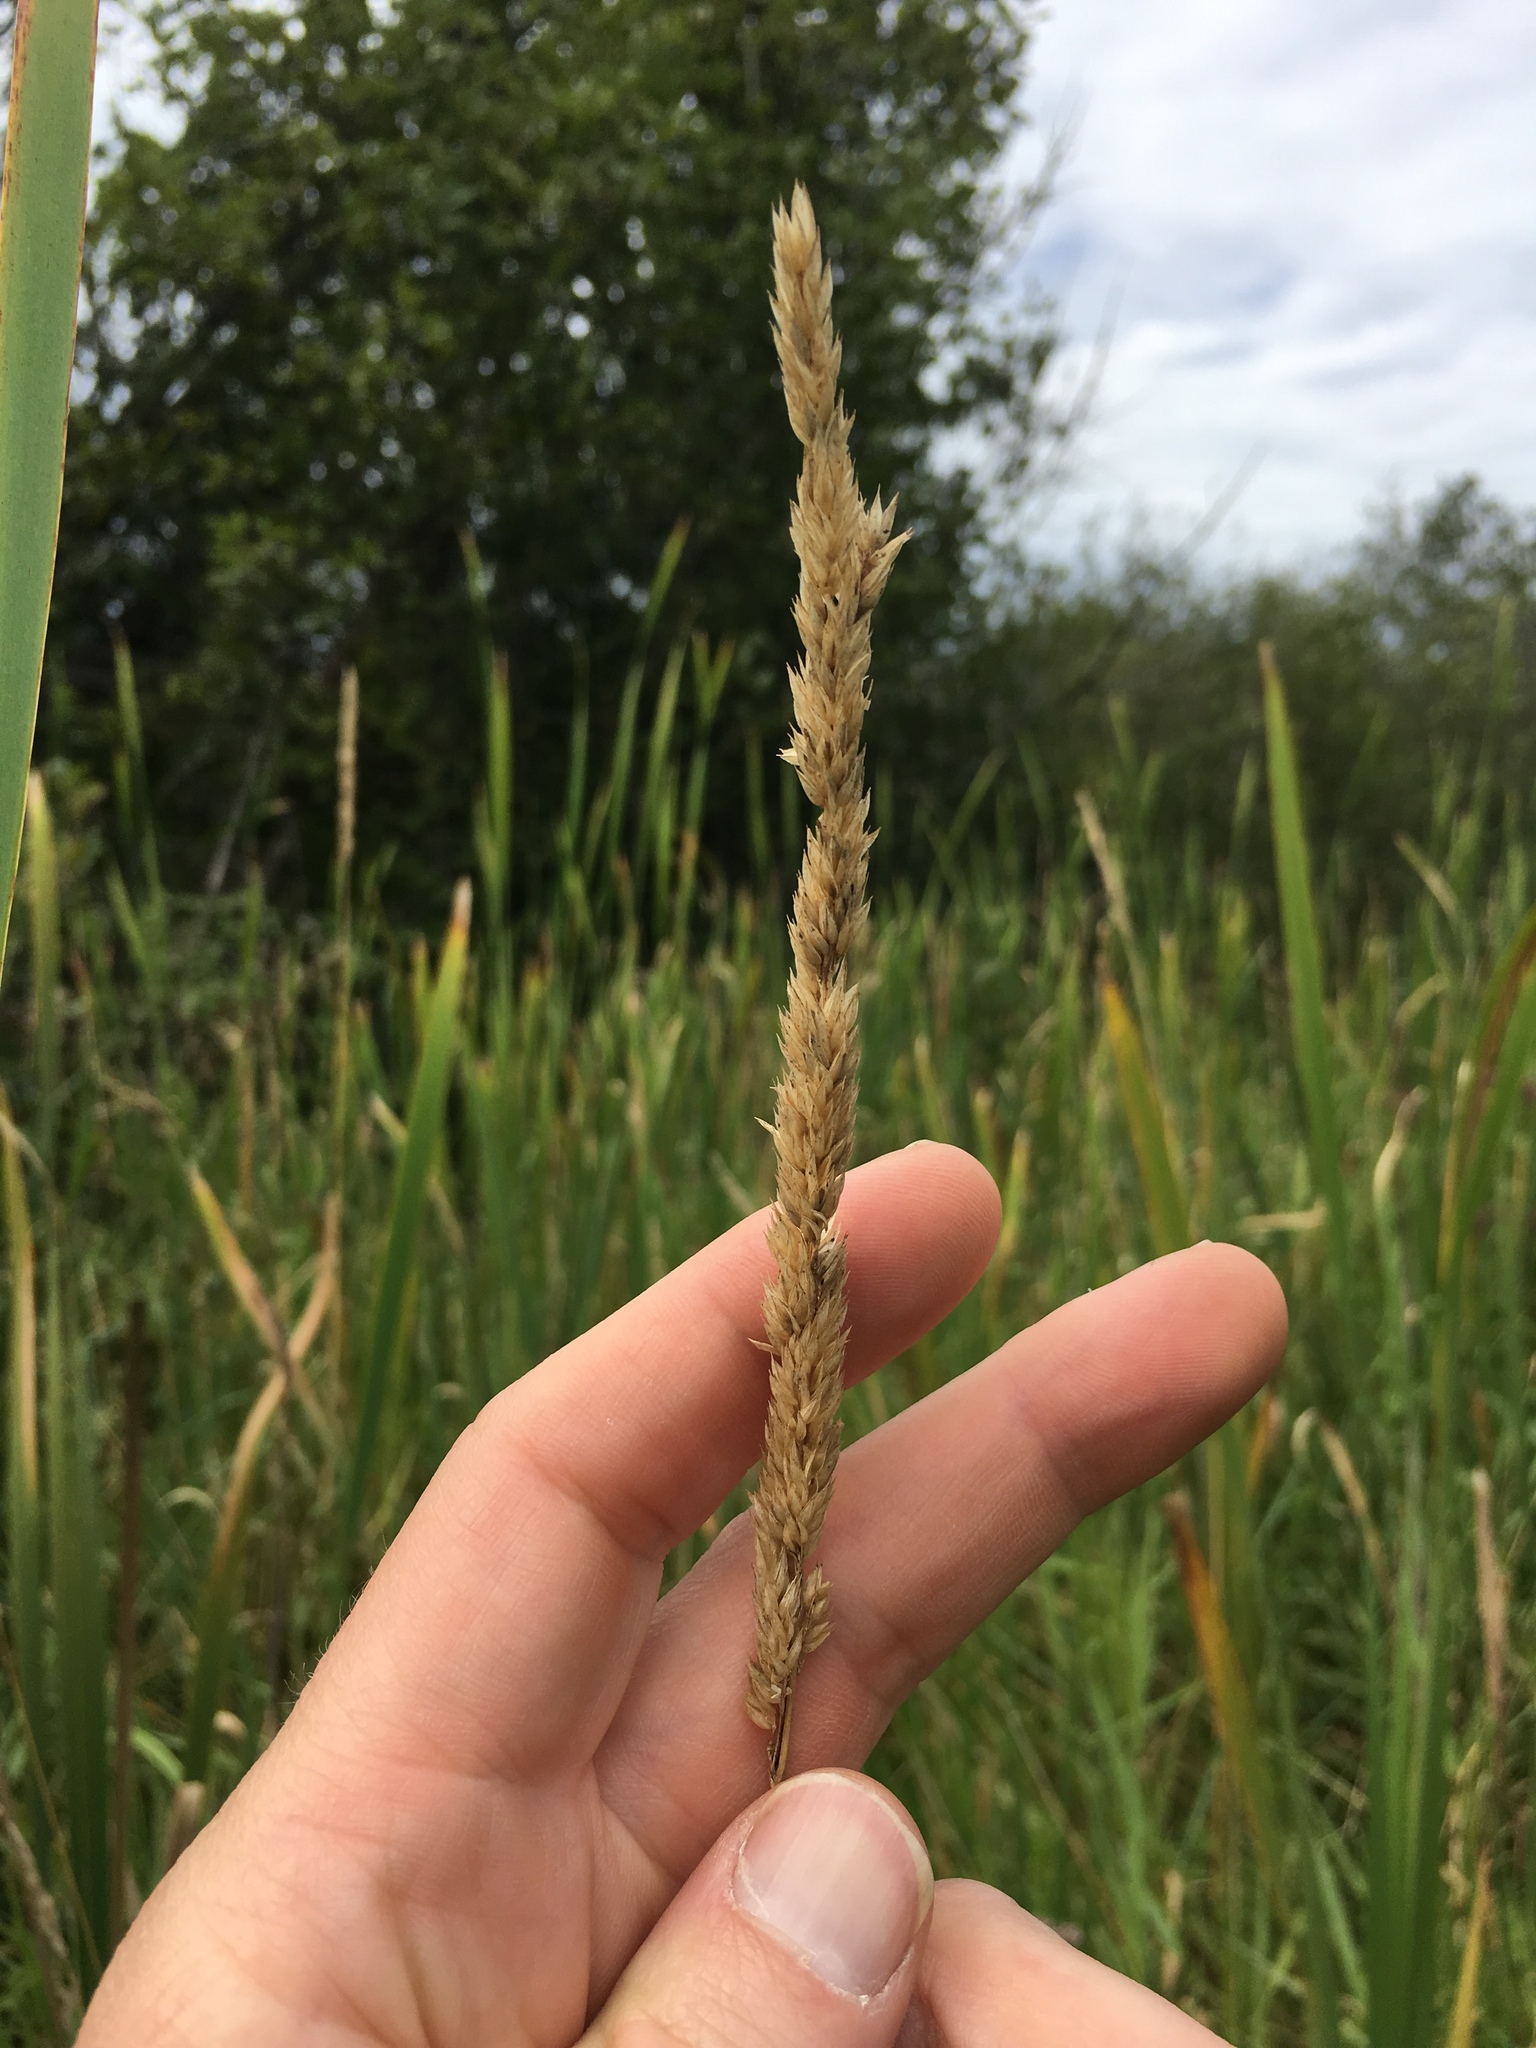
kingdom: Plantae
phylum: Tracheophyta
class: Liliopsida
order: Poales
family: Poaceae
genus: Phalaris
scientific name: Phalaris arundinacea
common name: Reed canary-grass
